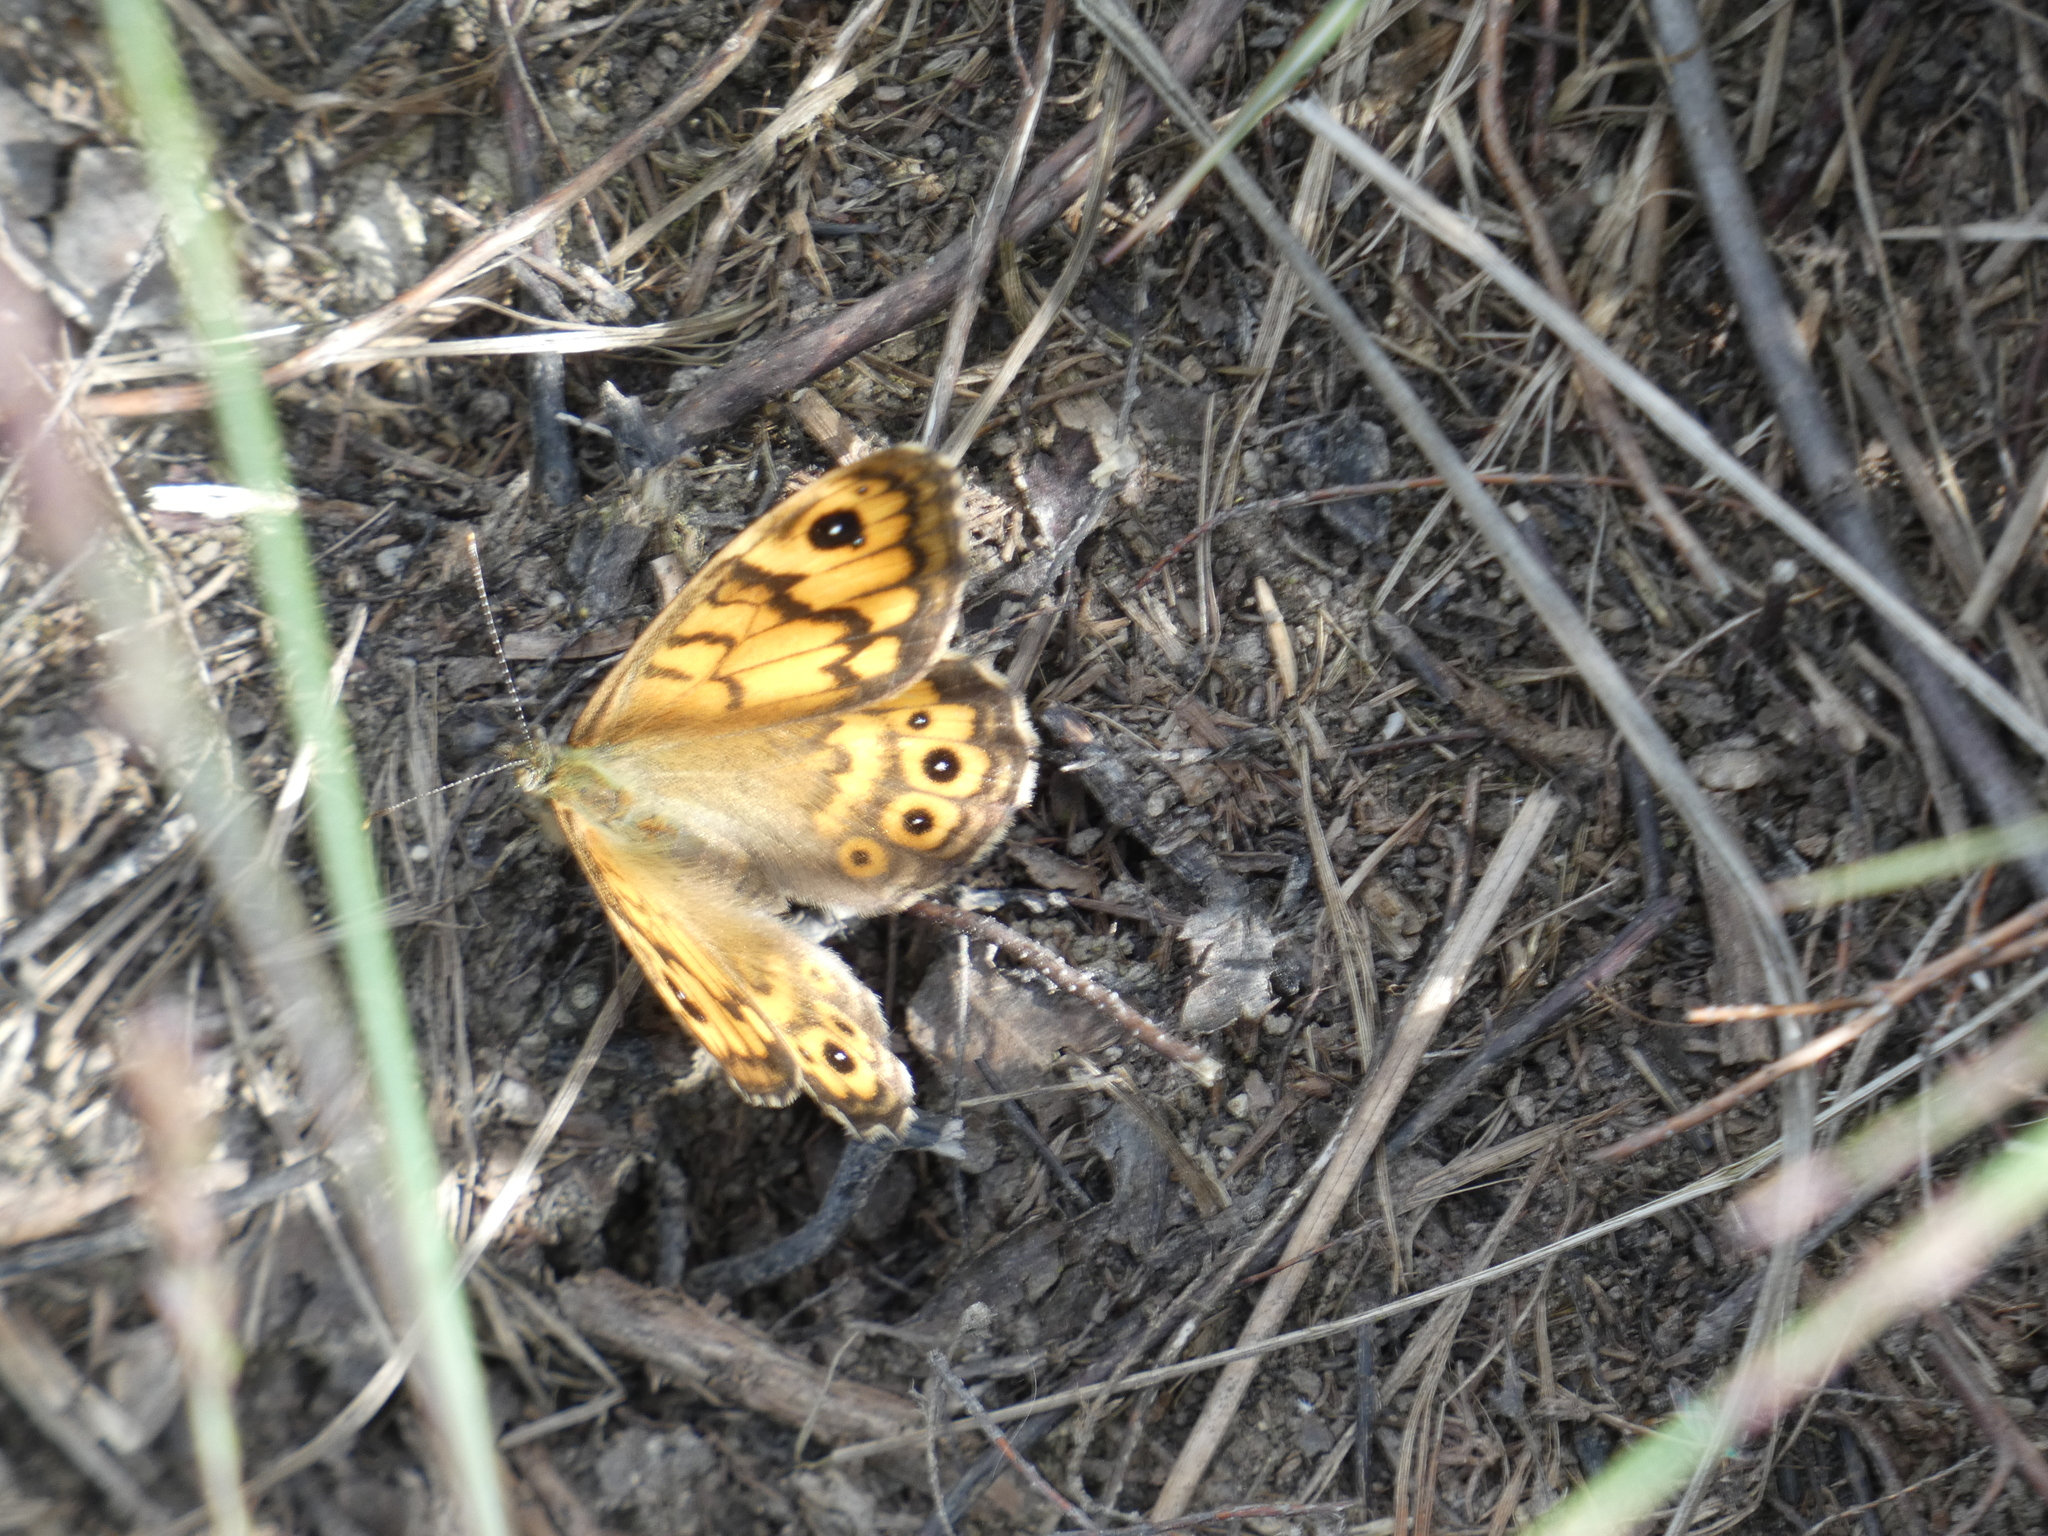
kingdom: Animalia
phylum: Arthropoda
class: Insecta
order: Lepidoptera
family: Nymphalidae
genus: Pararge
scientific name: Pararge Lasiommata megera
